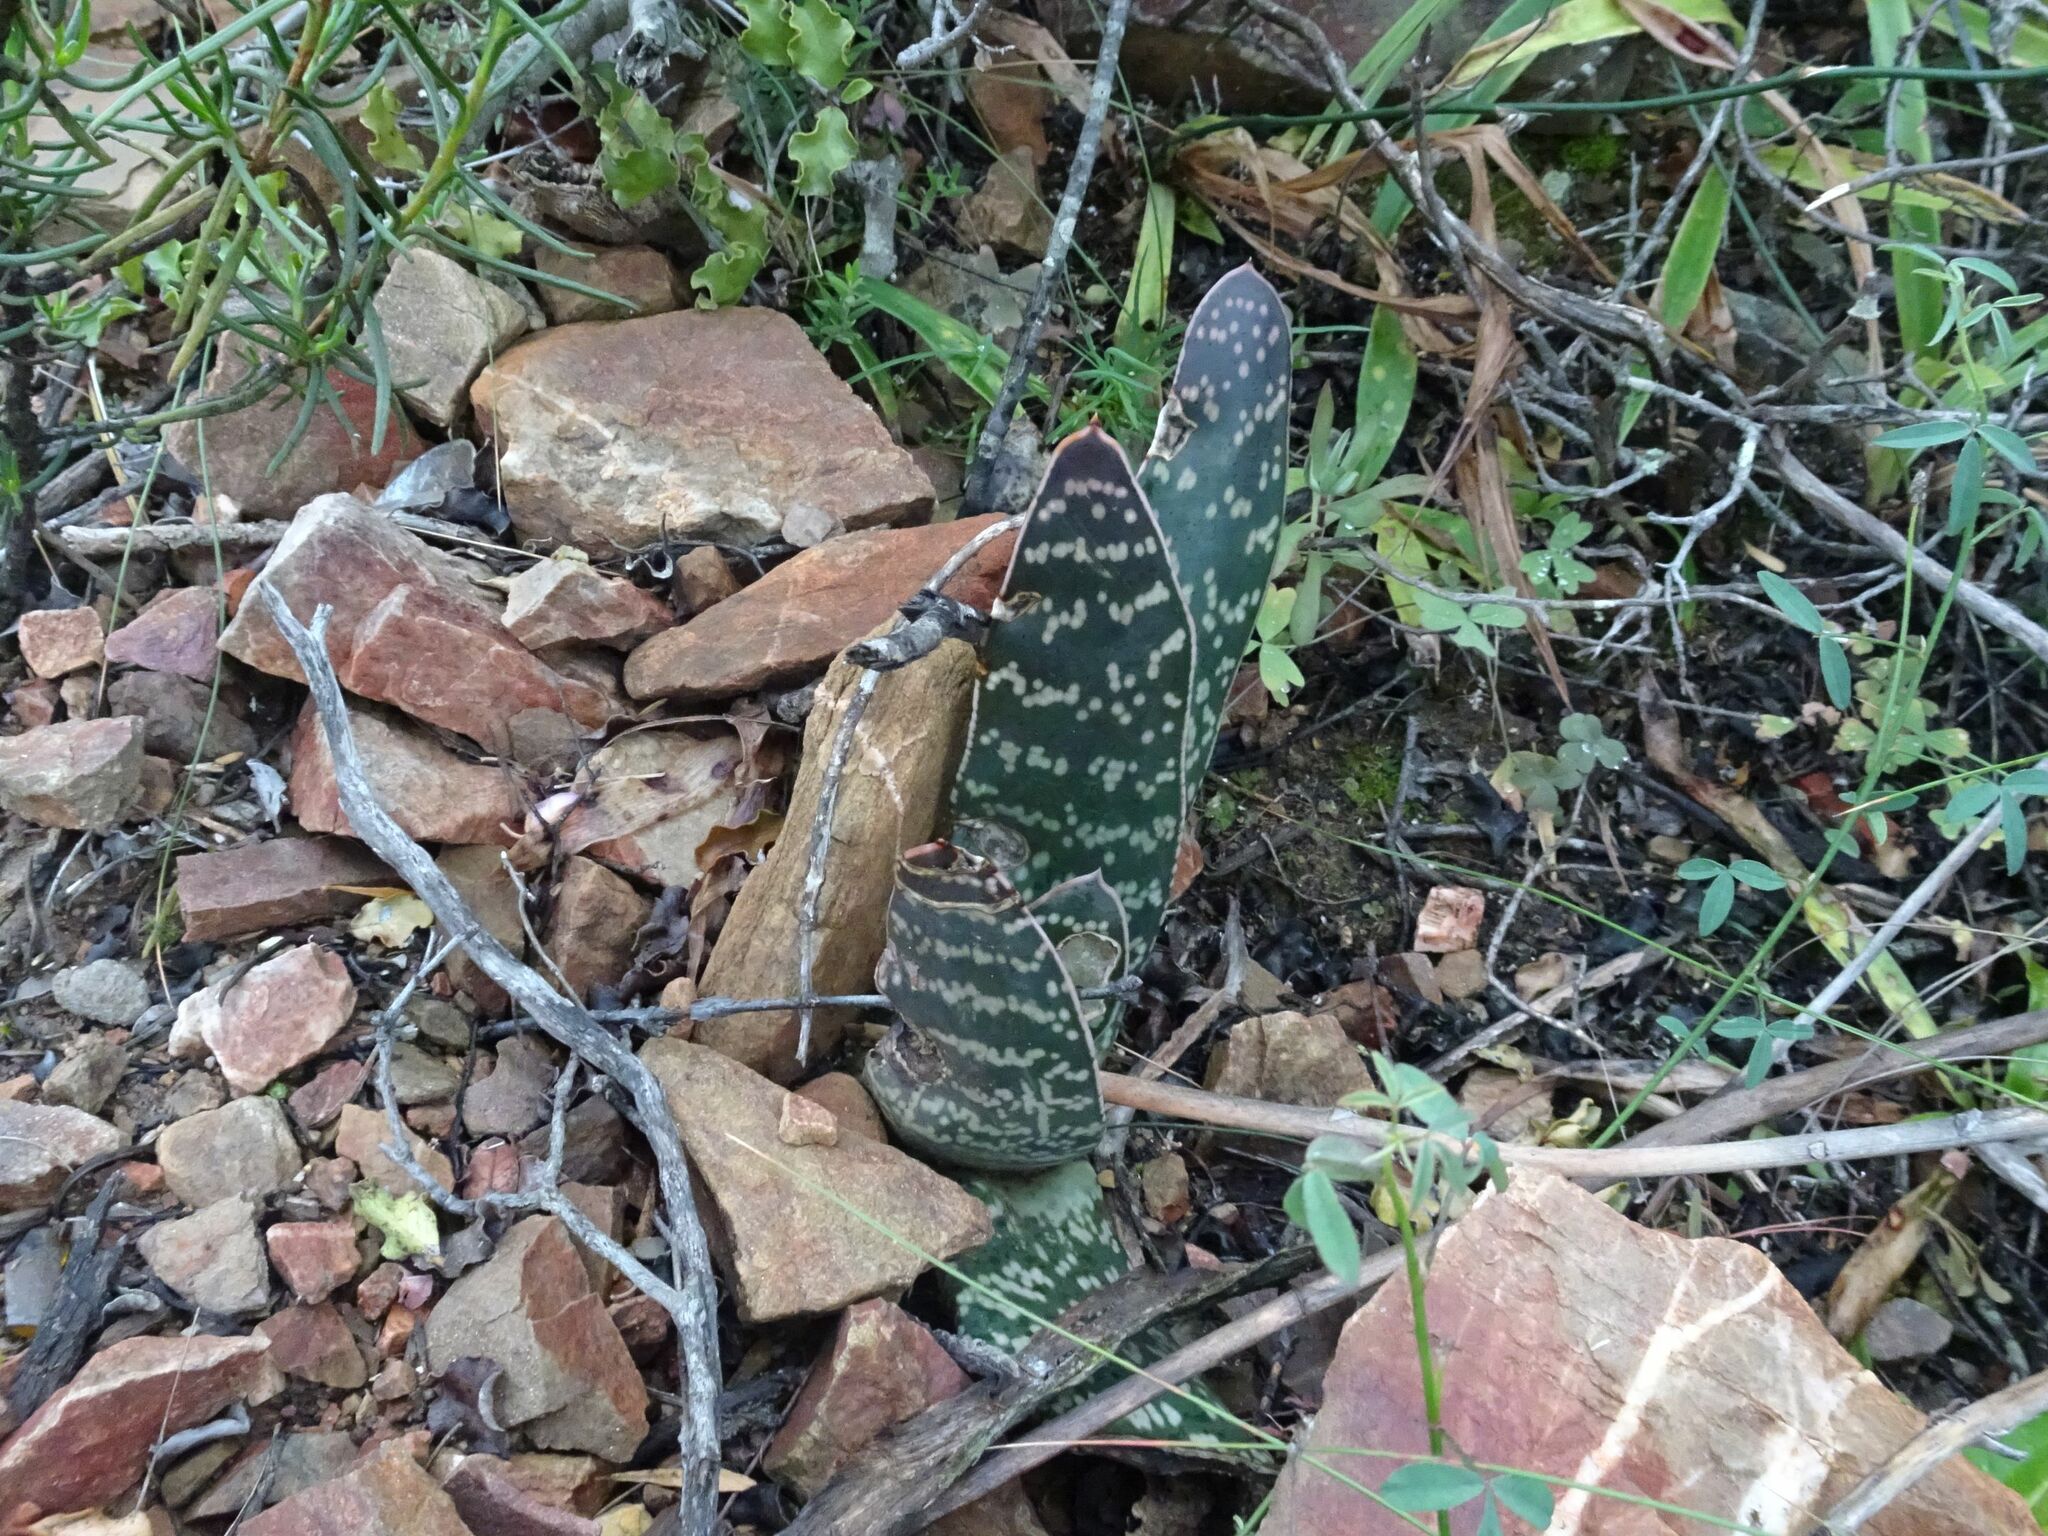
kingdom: Plantae
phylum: Tracheophyta
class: Liliopsida
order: Asparagales
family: Asphodelaceae
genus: Gasteria
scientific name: Gasteria brachyphylla
